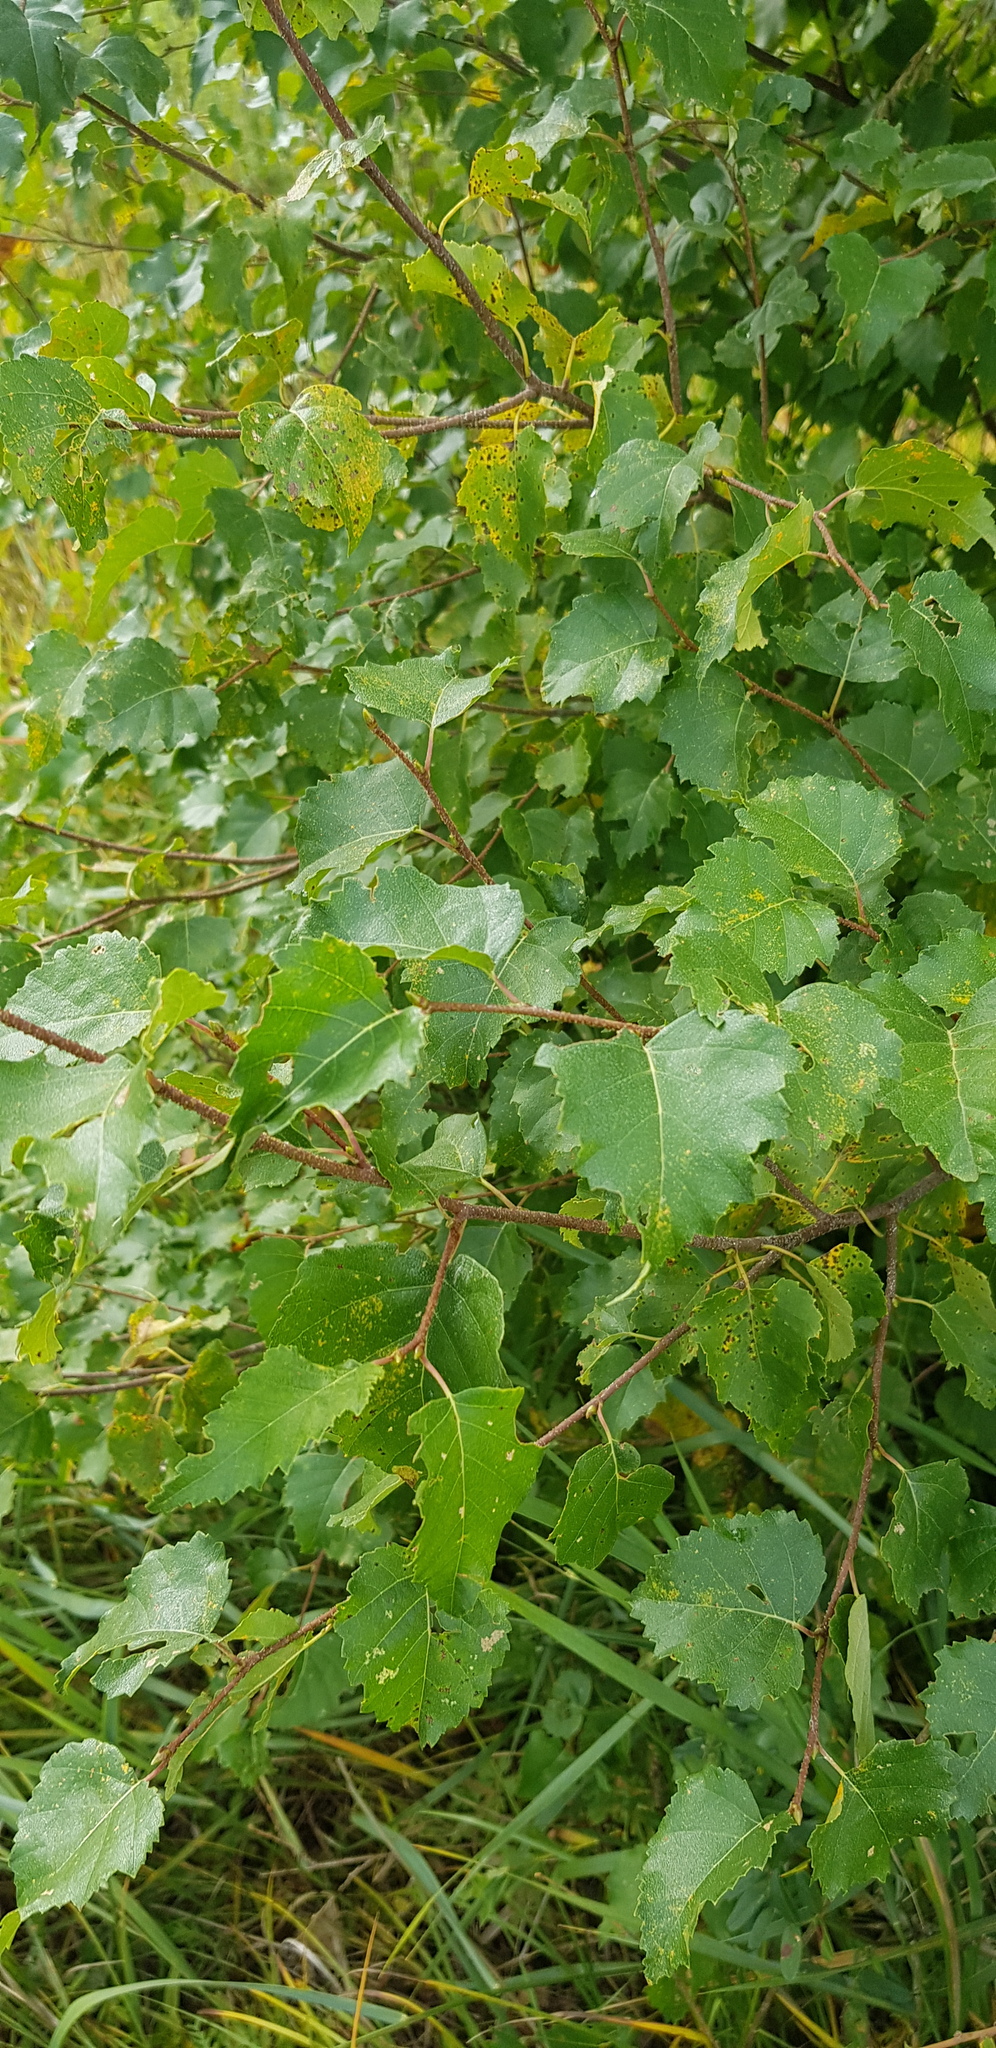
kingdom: Plantae
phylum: Tracheophyta
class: Magnoliopsida
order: Fagales
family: Betulaceae
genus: Betula
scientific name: Betula pendula
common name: Silver birch
